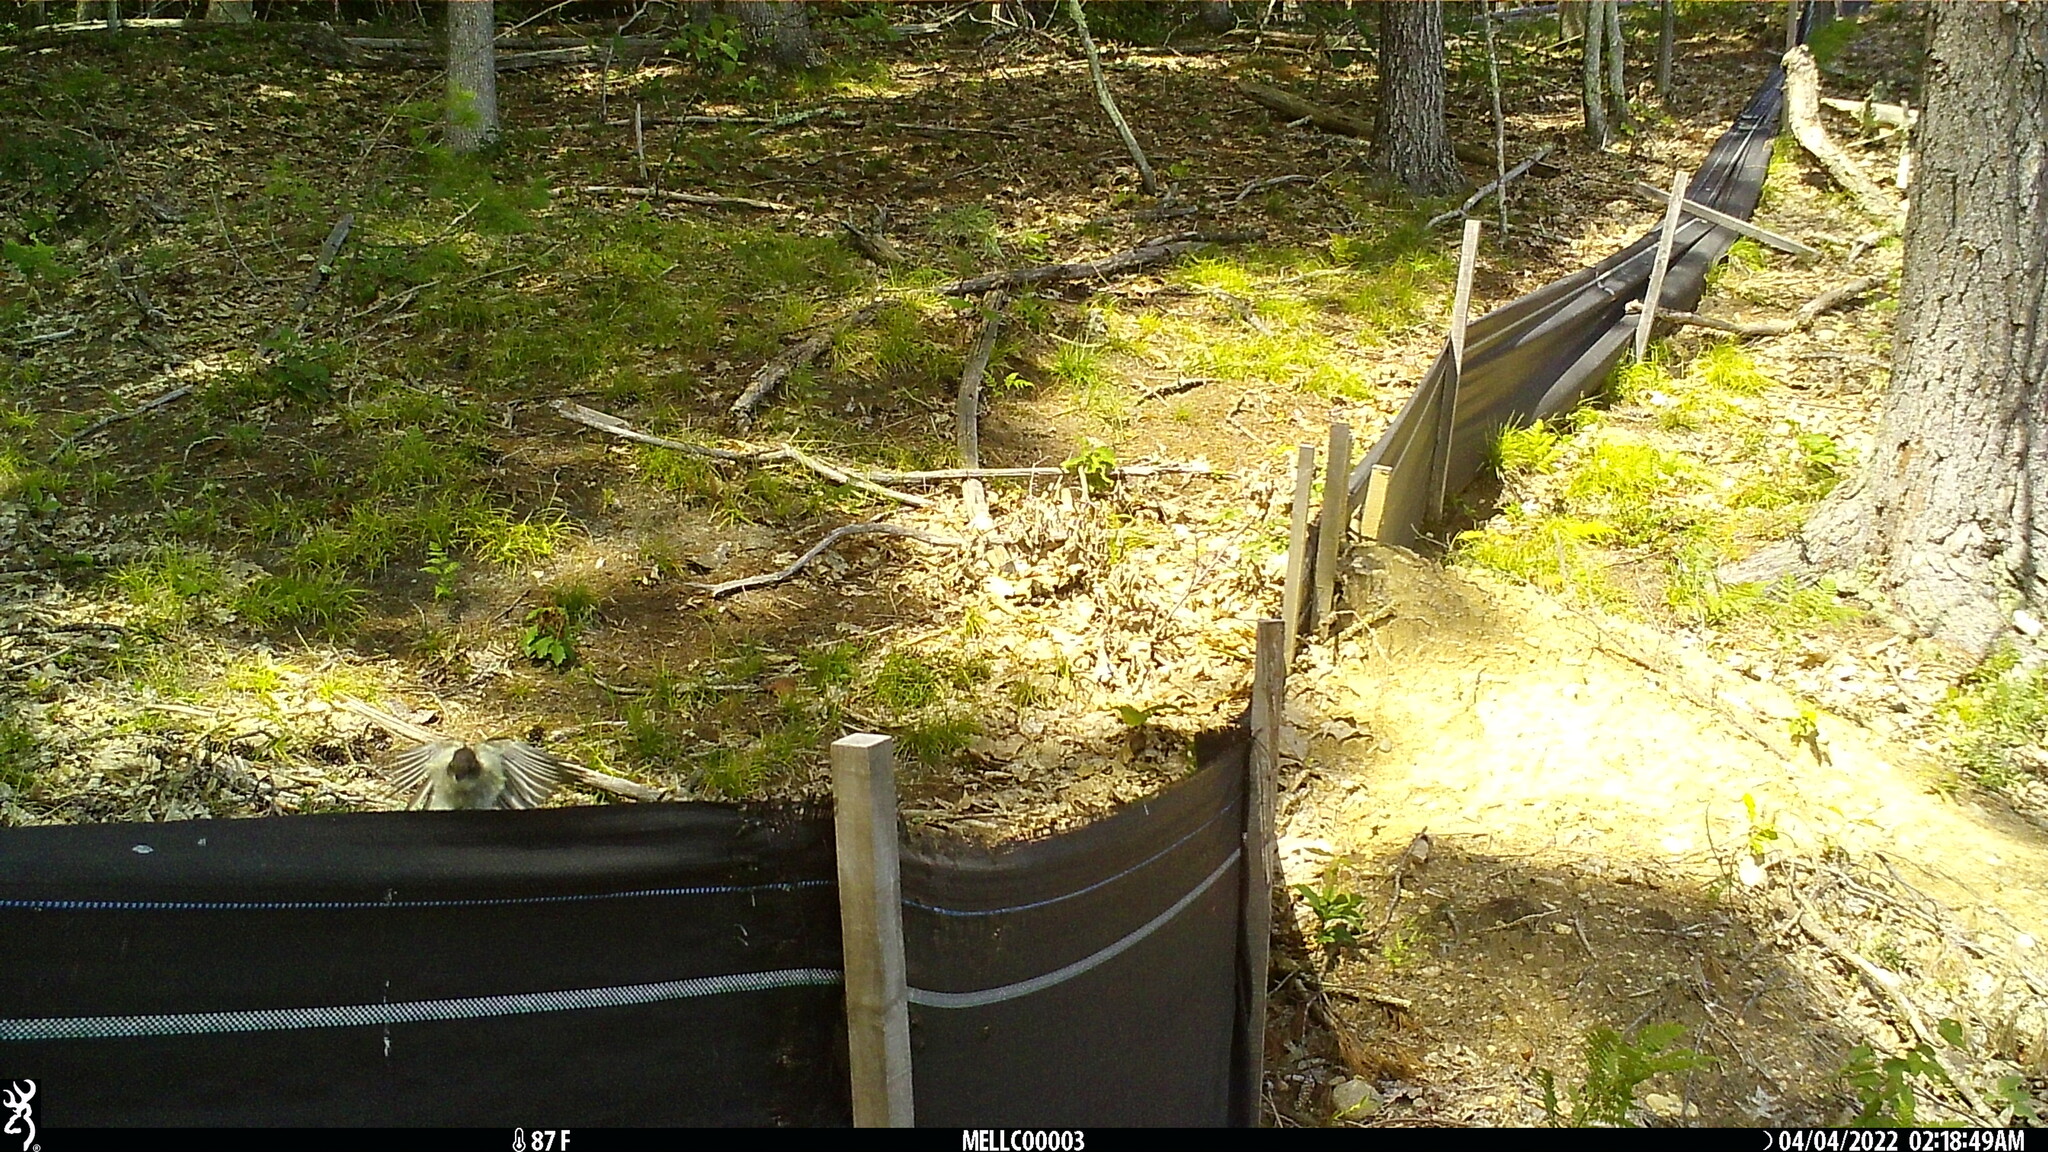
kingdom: Animalia
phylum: Chordata
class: Aves
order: Passeriformes
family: Tyrannidae
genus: Sayornis
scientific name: Sayornis phoebe
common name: Eastern phoebe
